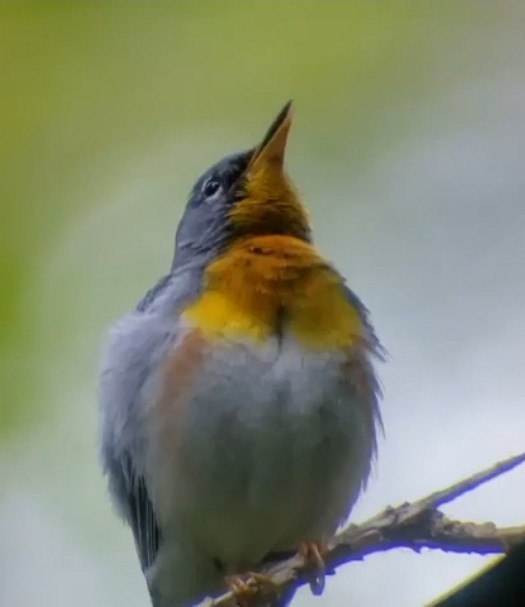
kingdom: Animalia
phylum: Chordata
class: Aves
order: Passeriformes
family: Parulidae
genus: Setophaga
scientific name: Setophaga americana
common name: Northern parula
